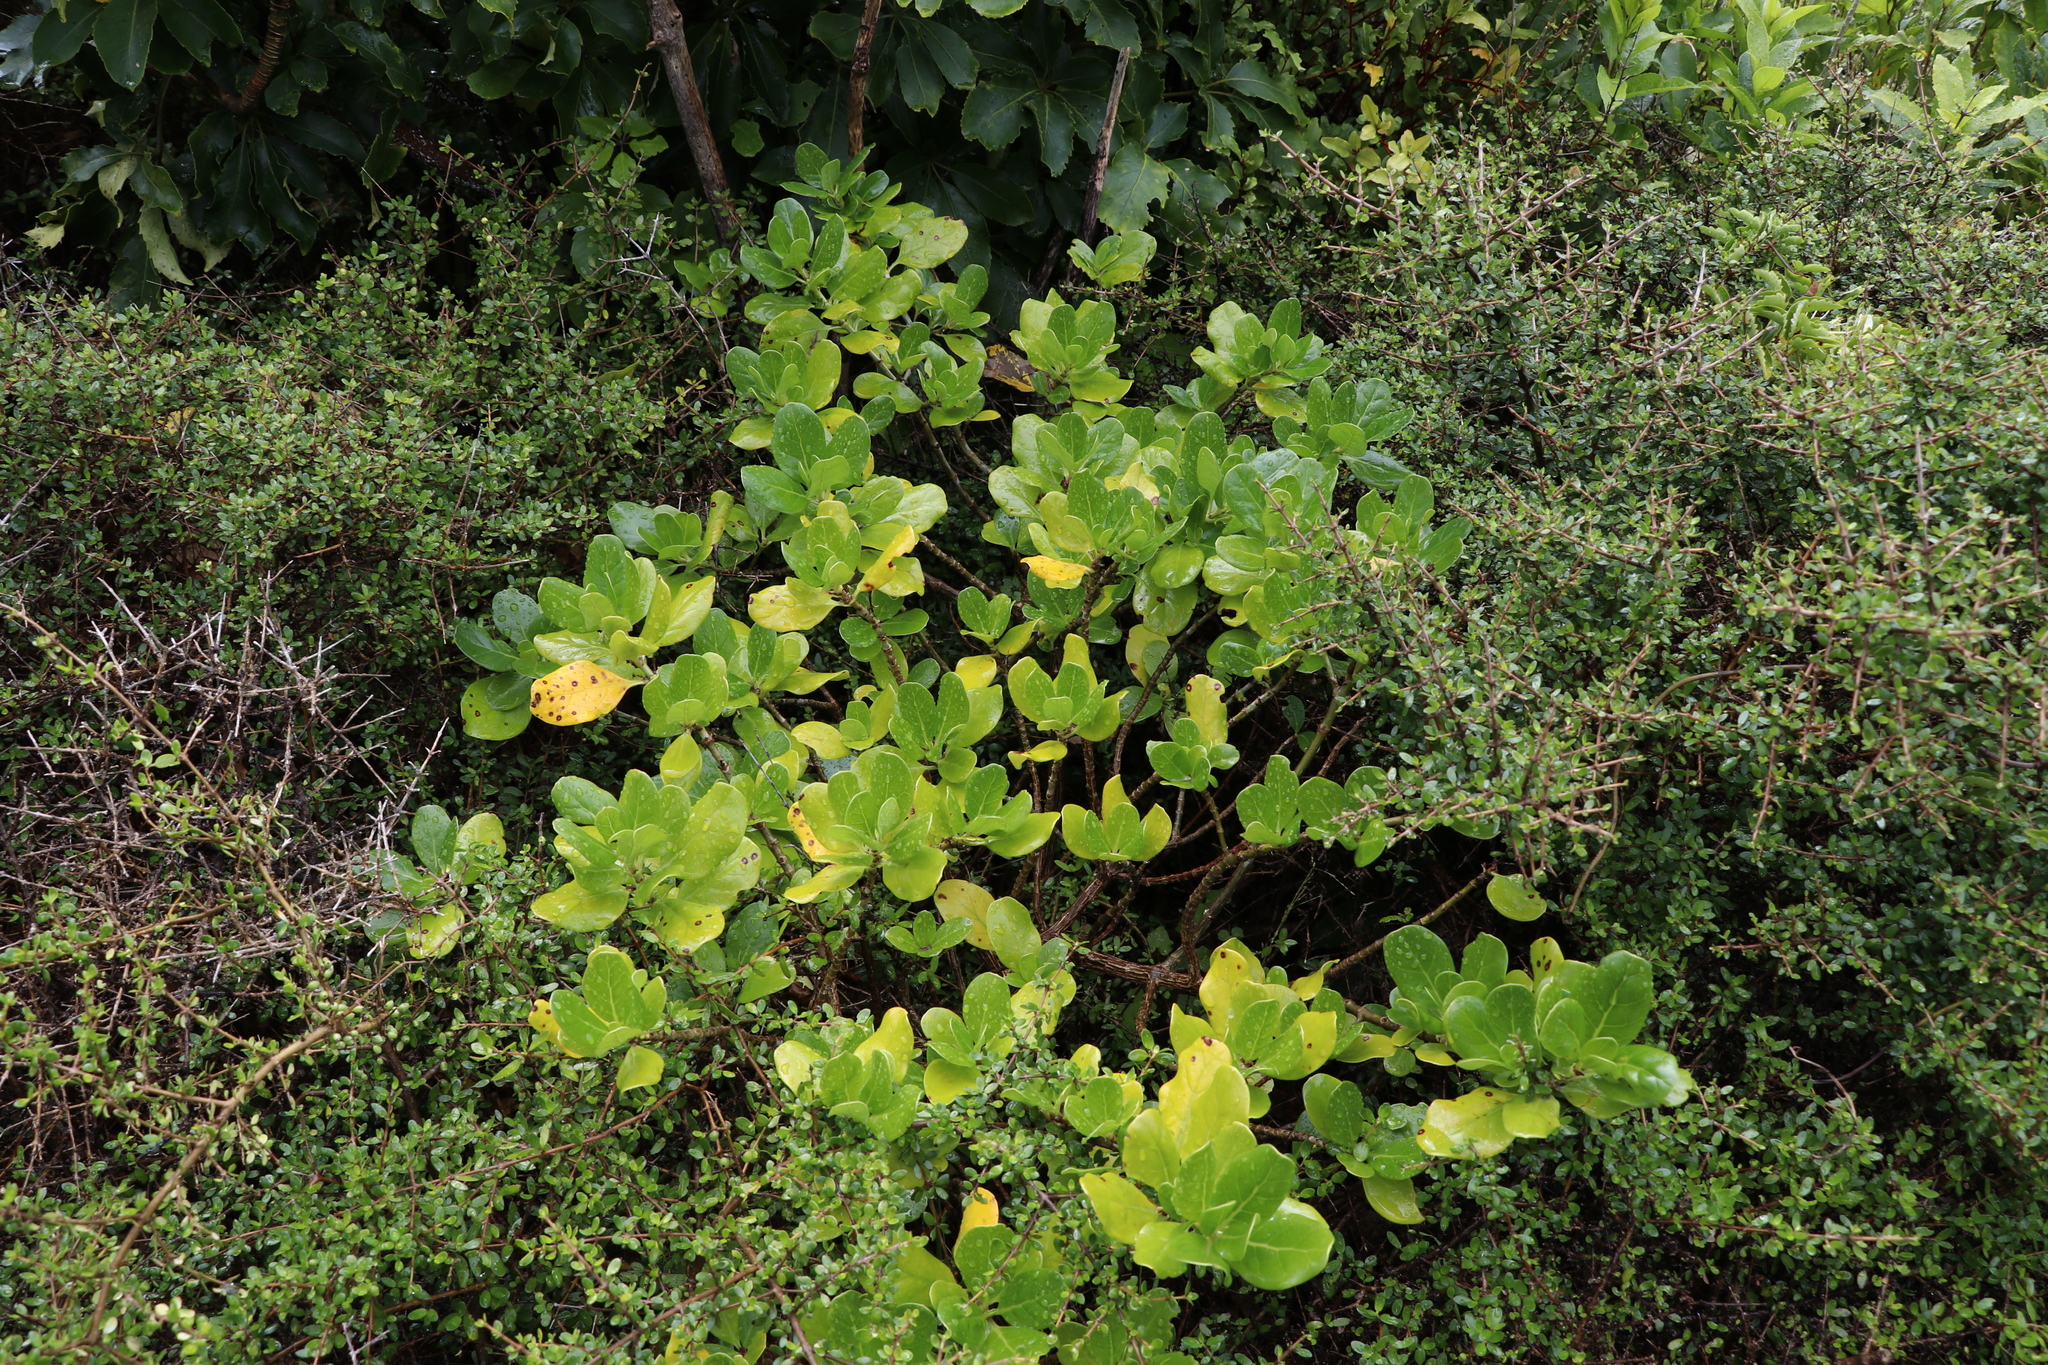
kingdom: Plantae
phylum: Tracheophyta
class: Magnoliopsida
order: Gentianales
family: Rubiaceae
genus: Coprosma
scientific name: Coprosma repens
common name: Tree bedstraw
